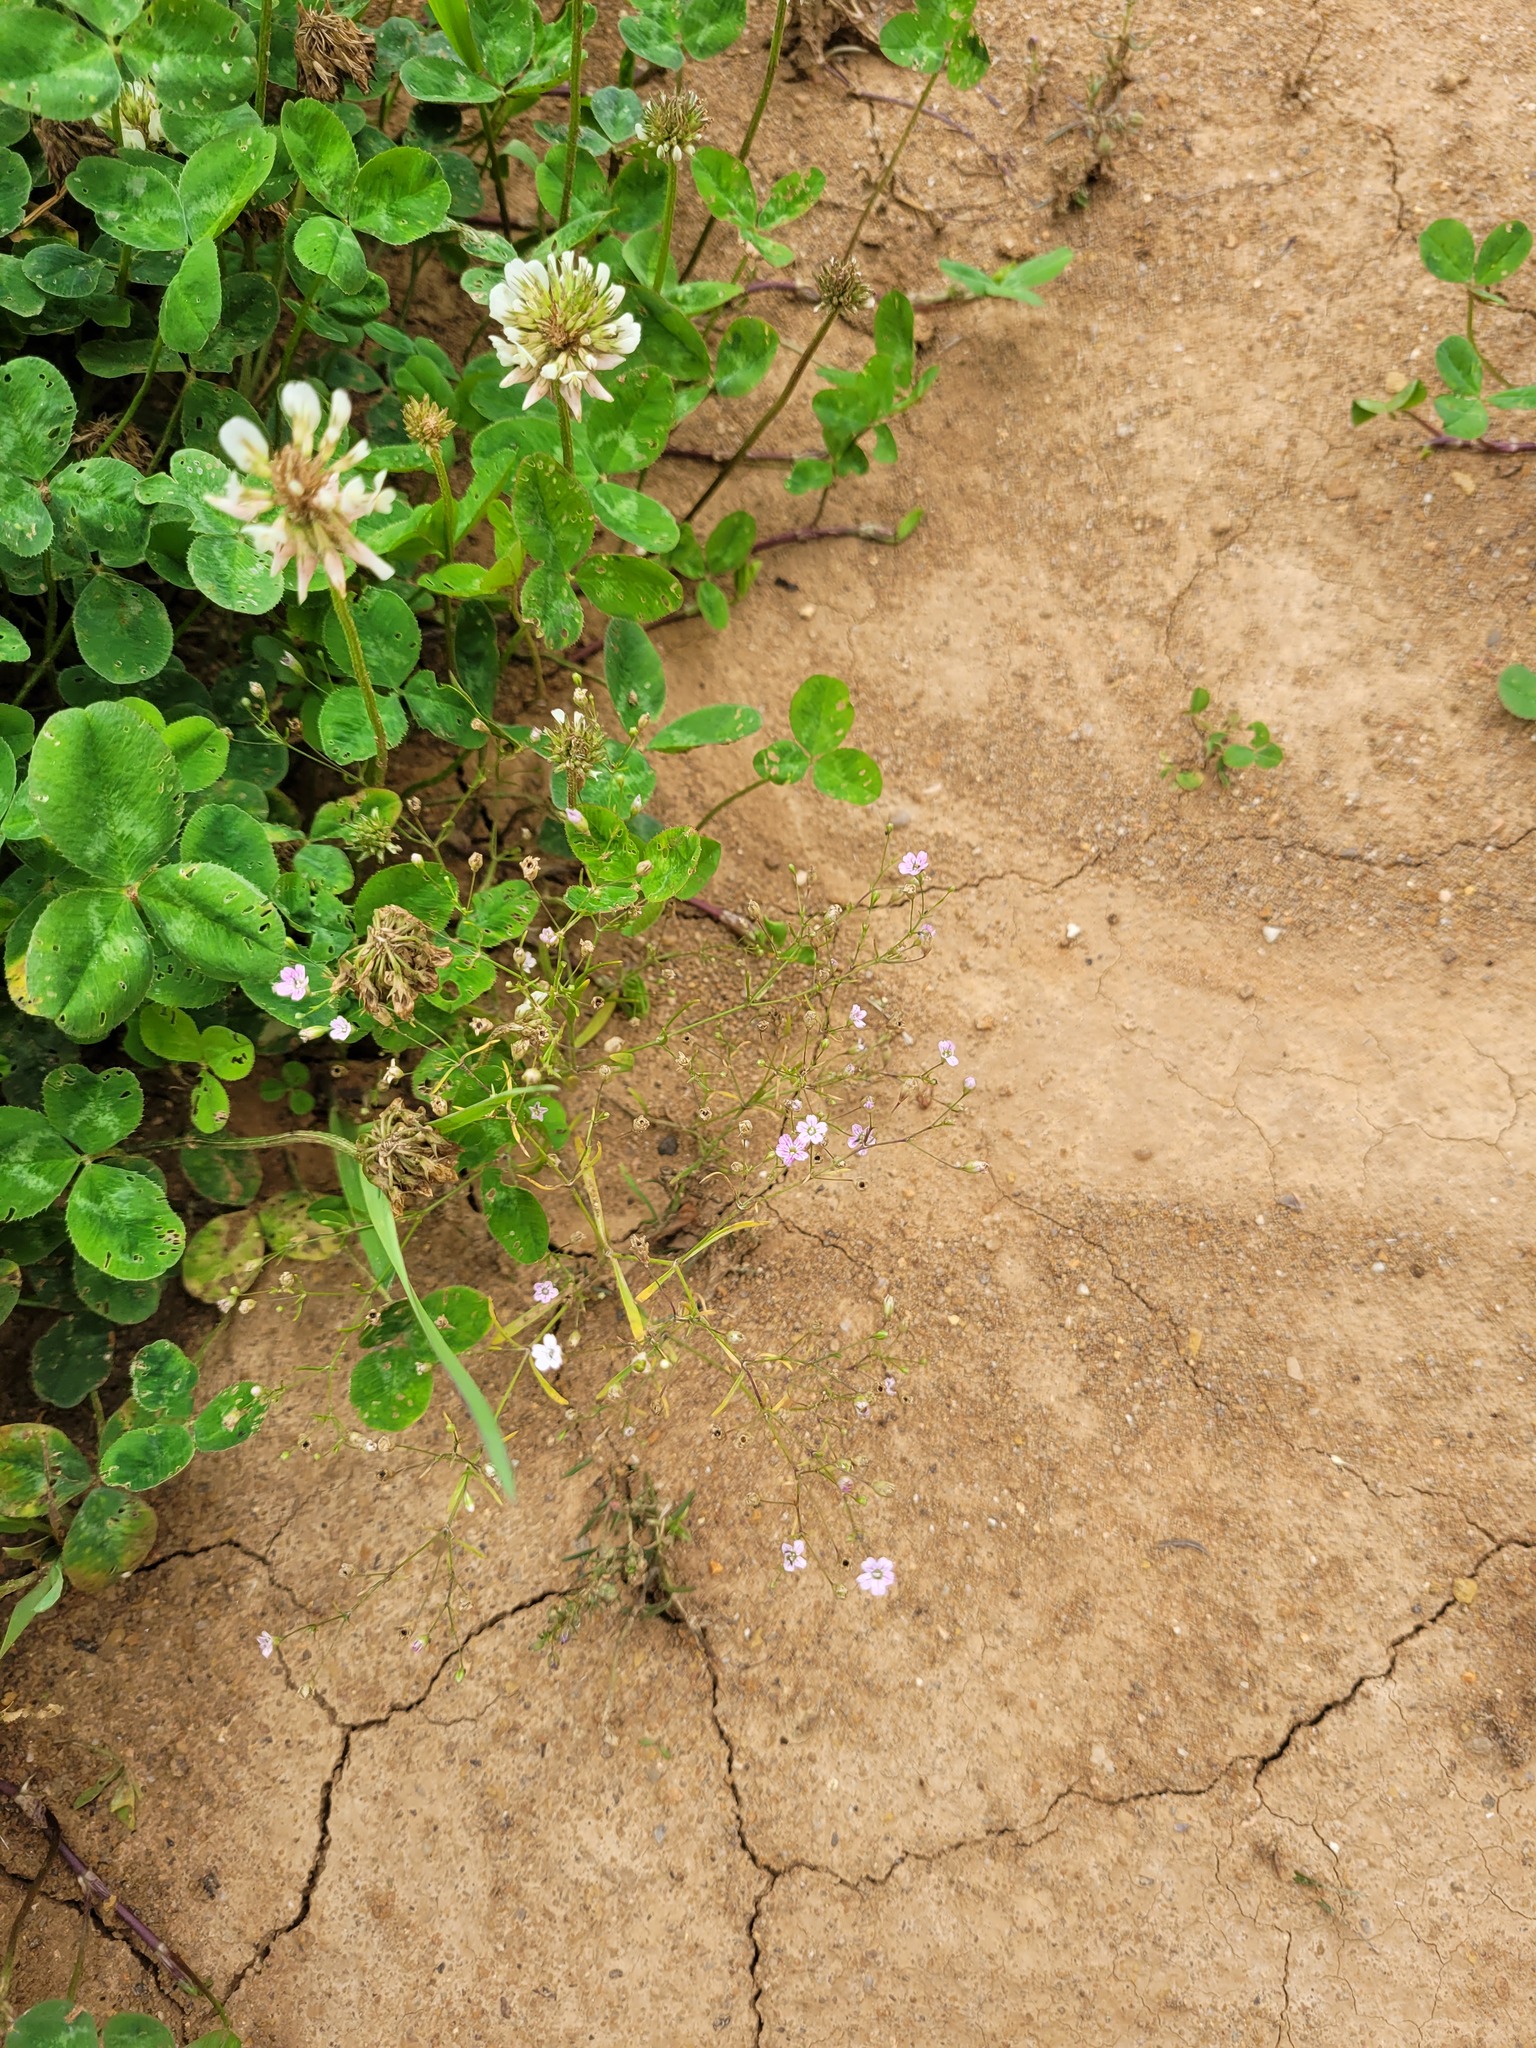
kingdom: Plantae
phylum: Tracheophyta
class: Magnoliopsida
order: Caryophyllales
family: Caryophyllaceae
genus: Psammophiliella
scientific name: Psammophiliella muralis
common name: Cushion baby's-breath
